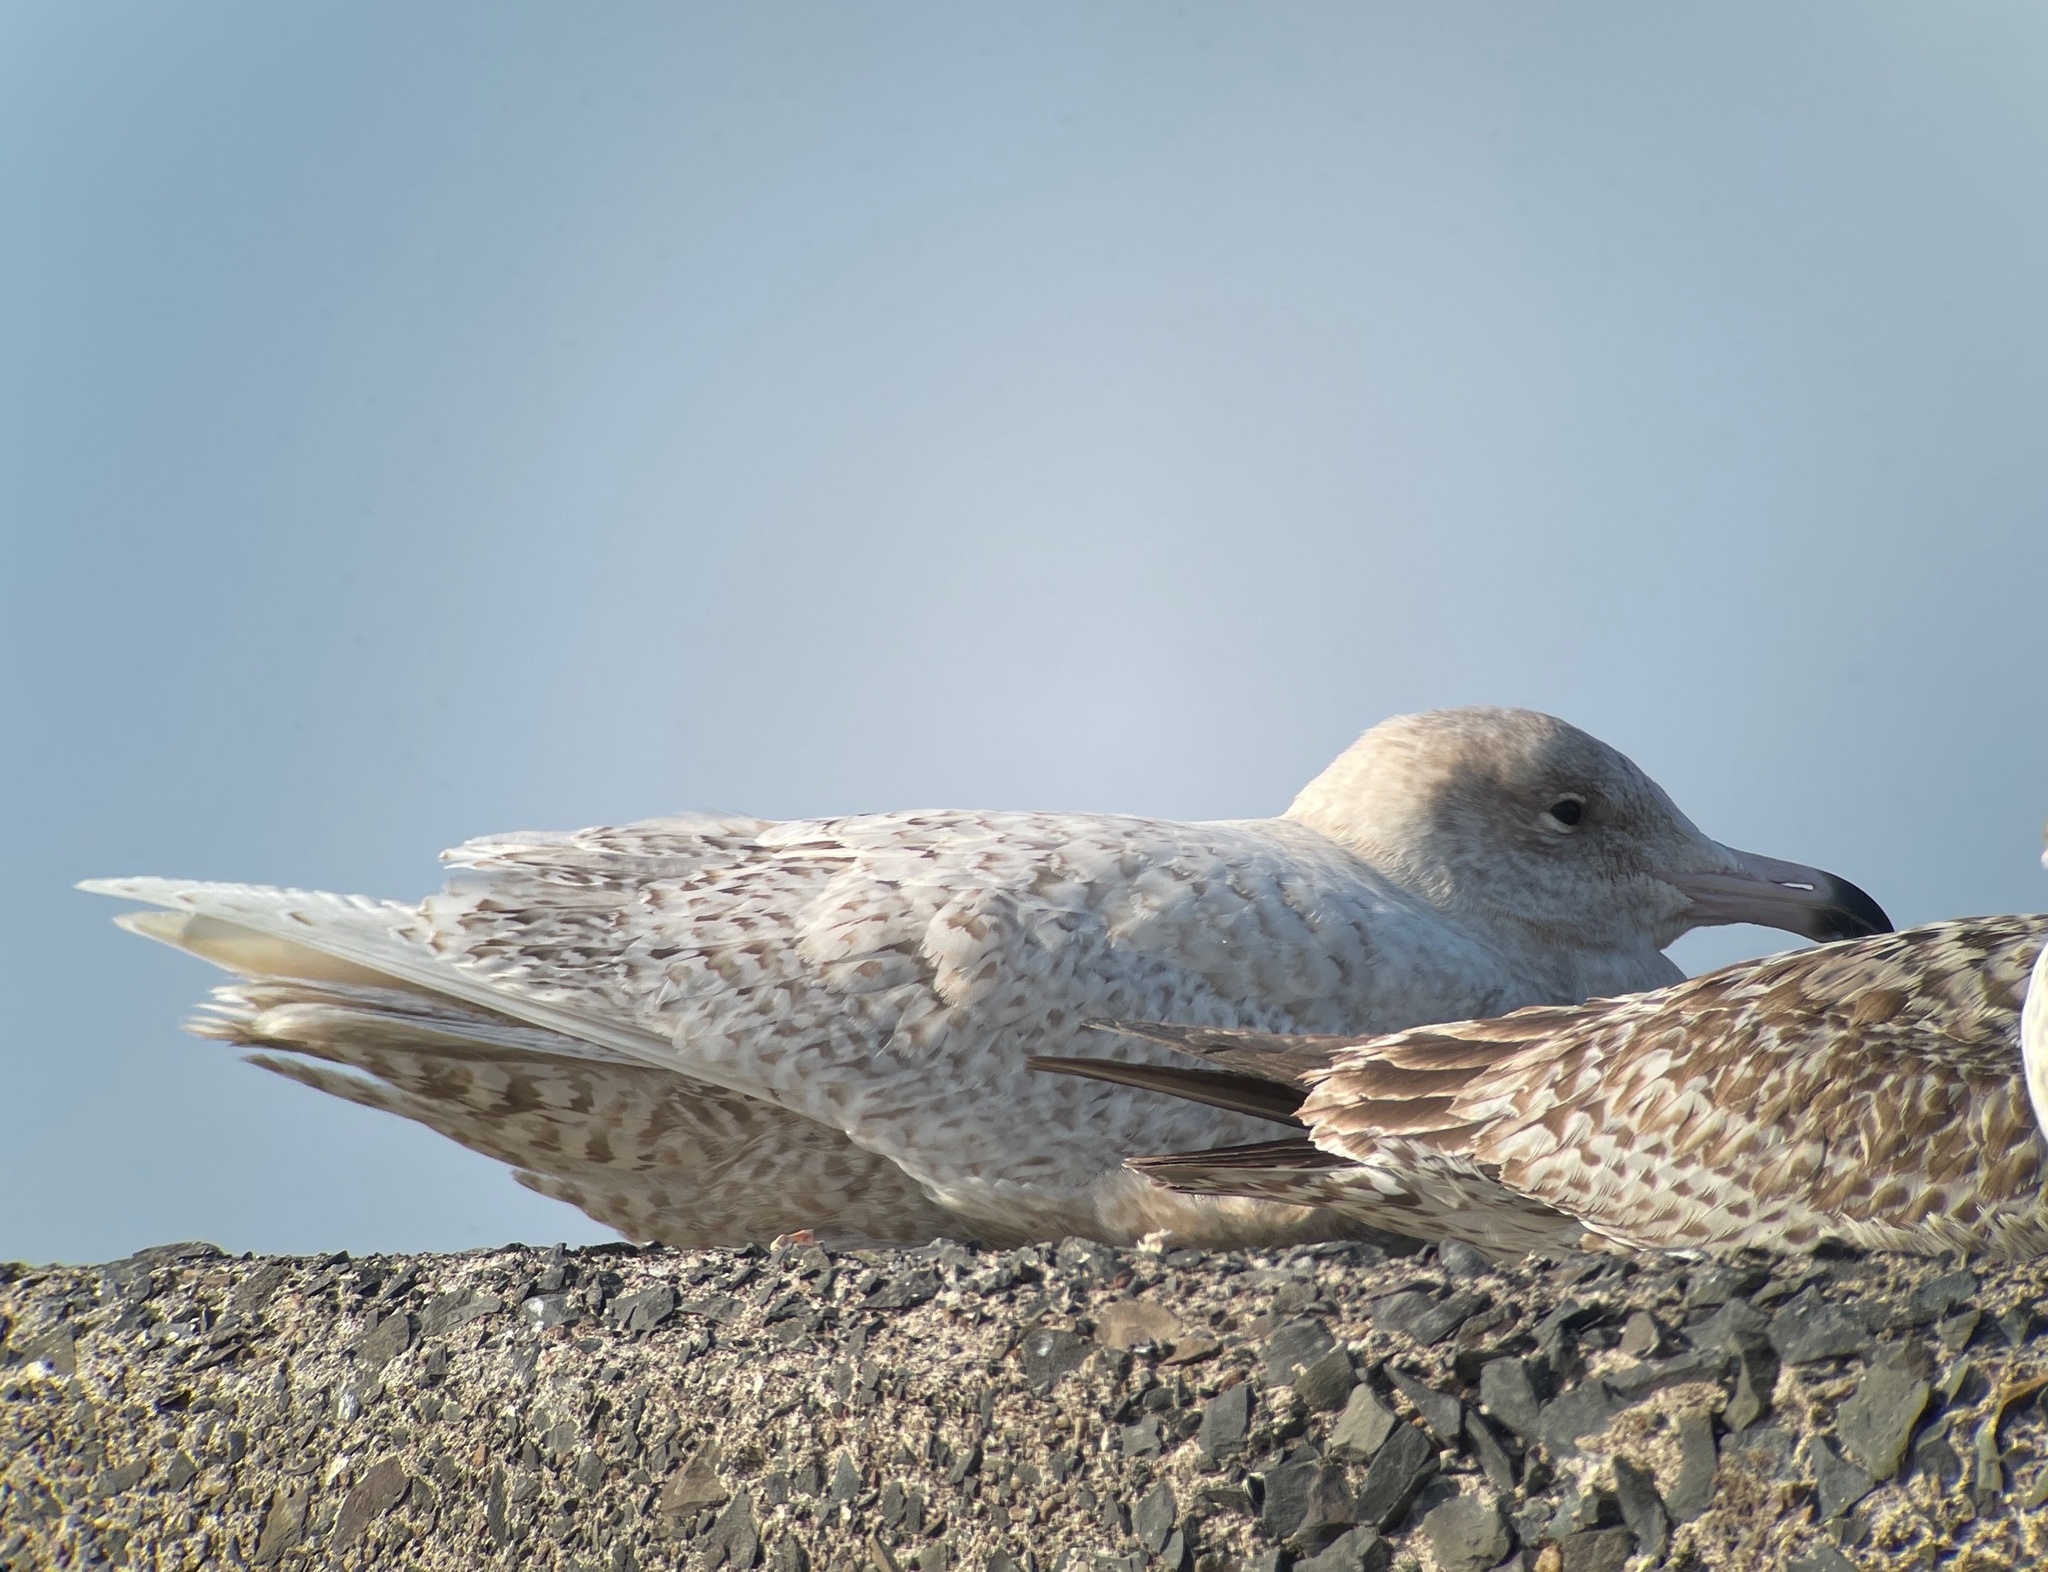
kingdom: Animalia
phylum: Chordata
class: Aves
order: Charadriiformes
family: Laridae
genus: Larus
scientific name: Larus hyperboreus
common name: Glaucous gull
